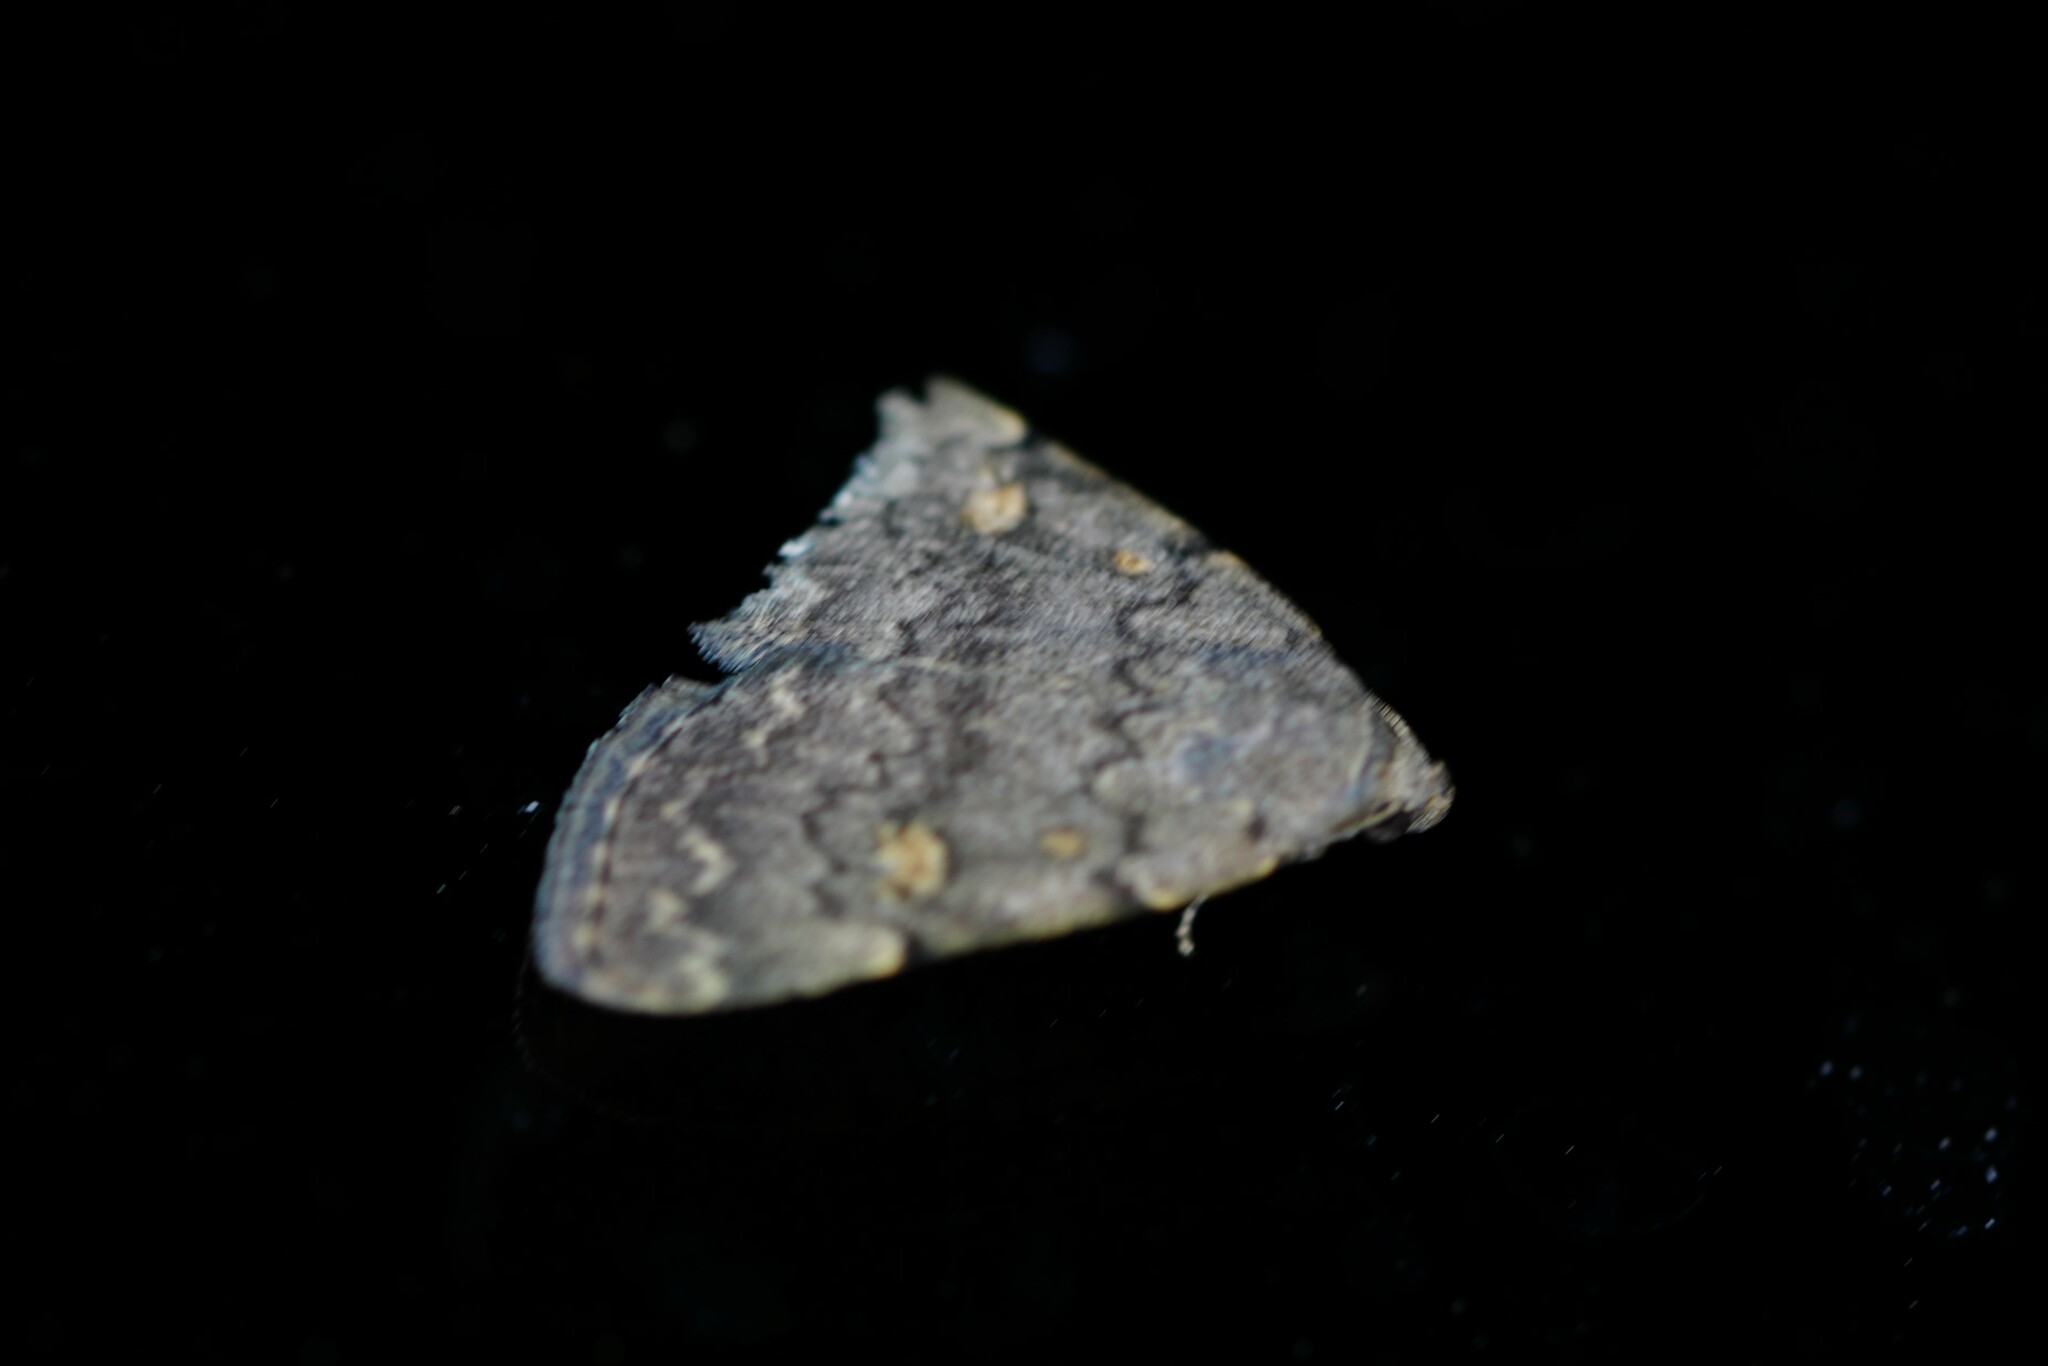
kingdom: Animalia
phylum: Arthropoda
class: Insecta
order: Lepidoptera
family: Erebidae
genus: Idia
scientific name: Idia aemula
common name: Common idia moth
